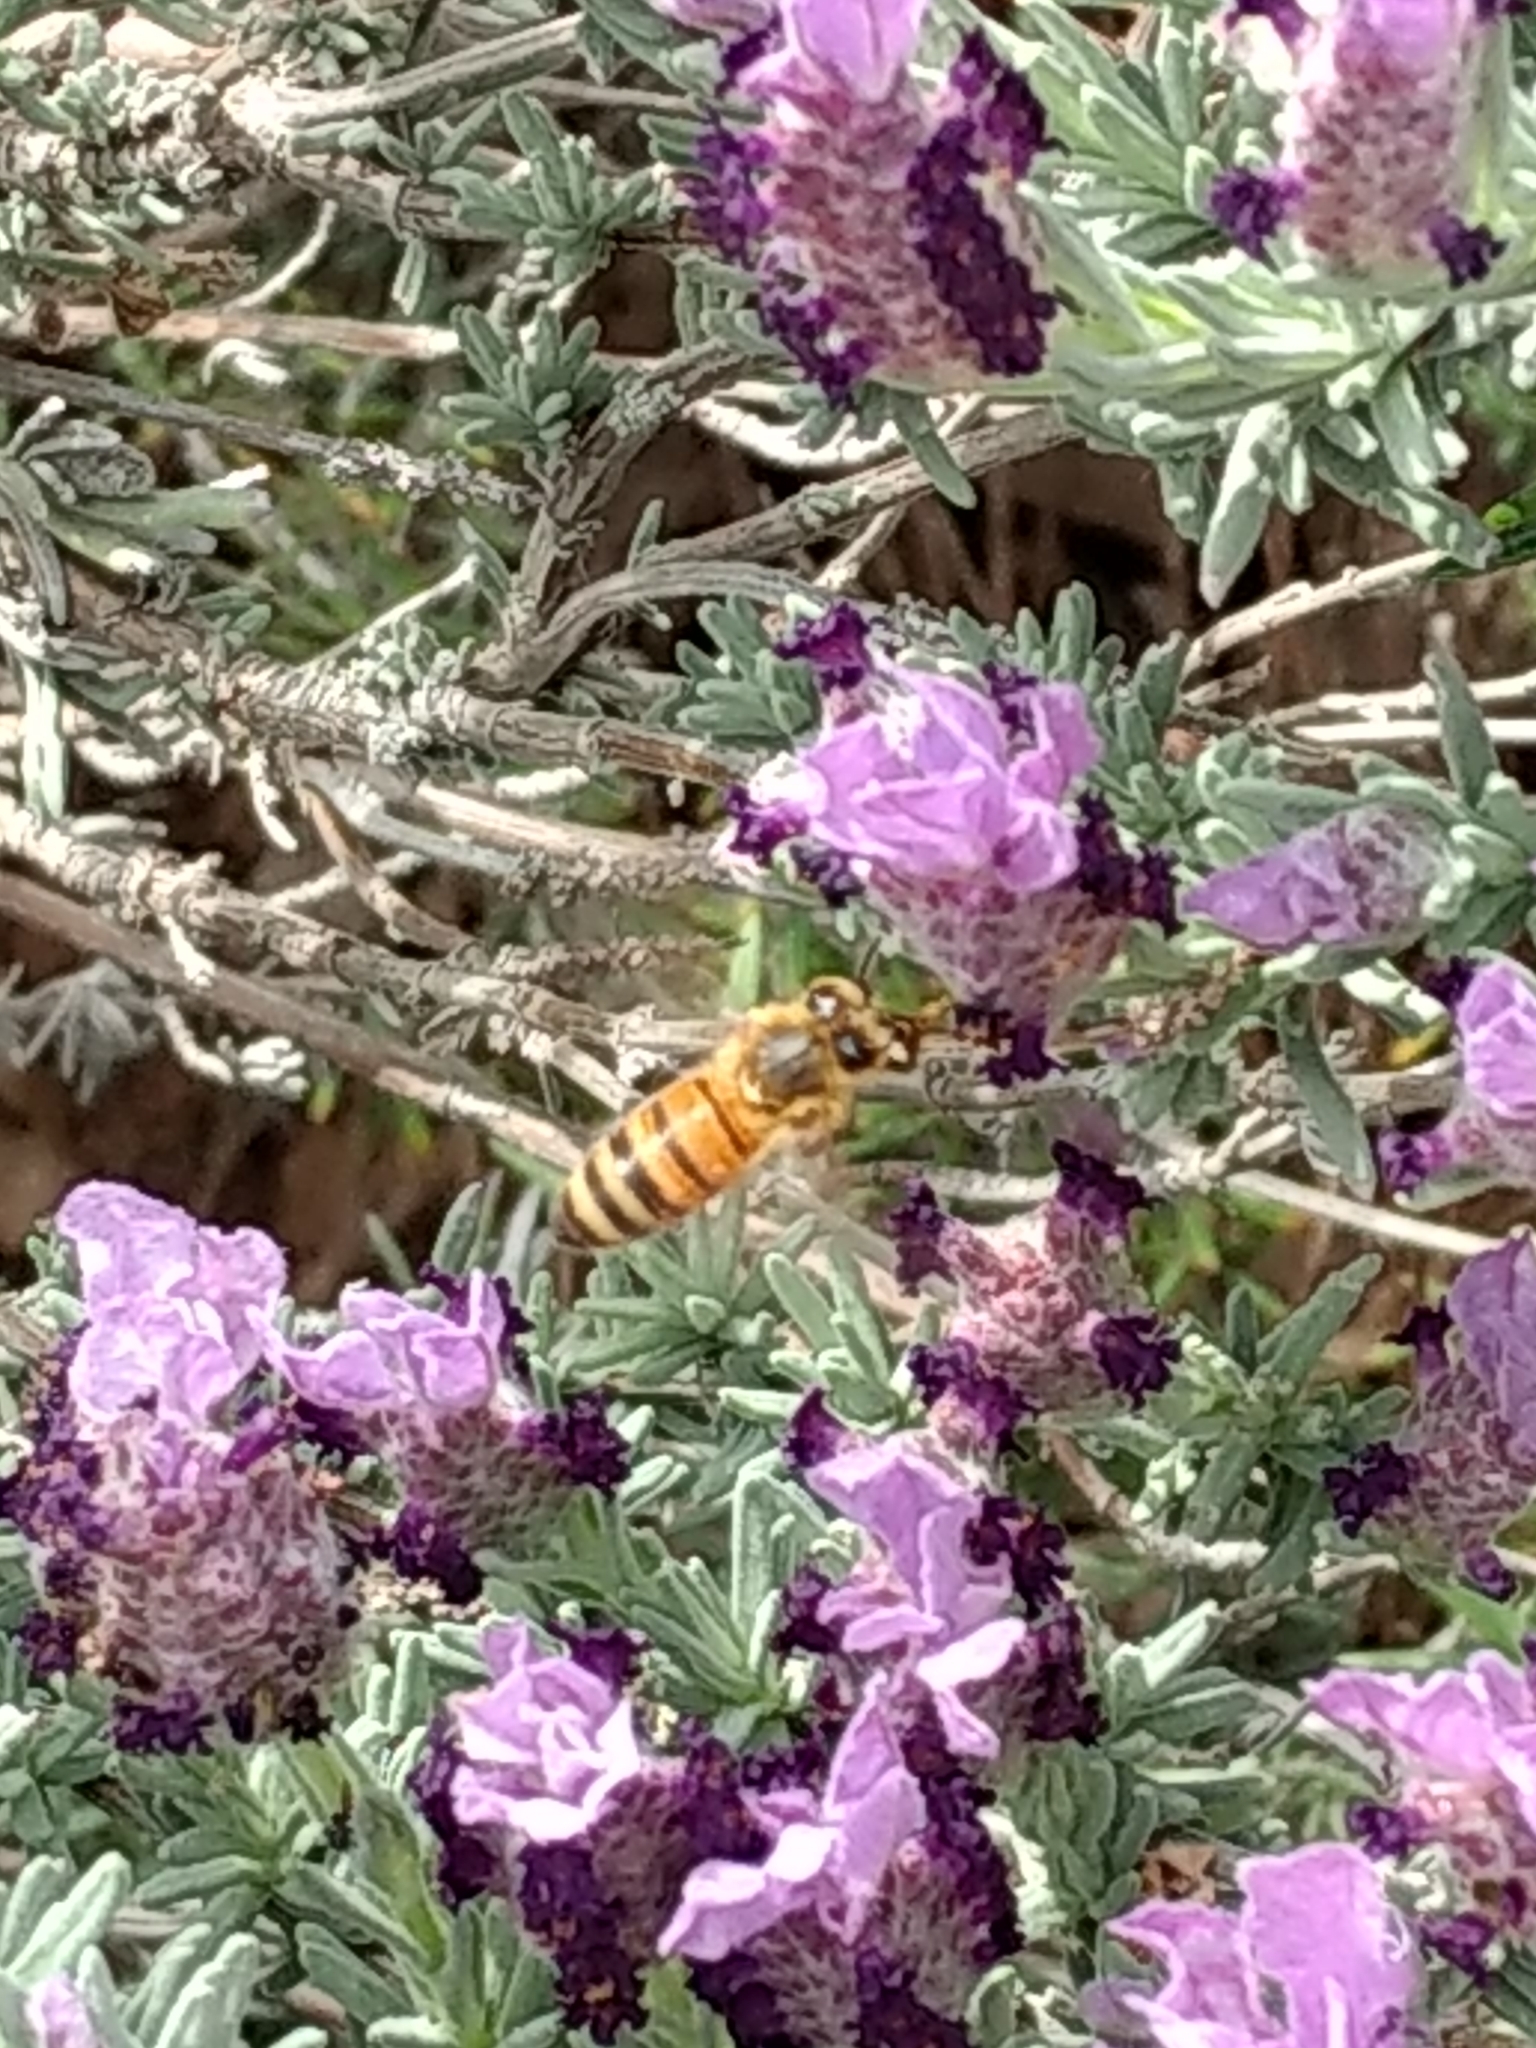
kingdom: Animalia
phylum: Arthropoda
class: Insecta
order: Hymenoptera
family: Apidae
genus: Apis
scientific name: Apis mellifera
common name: Honey bee
